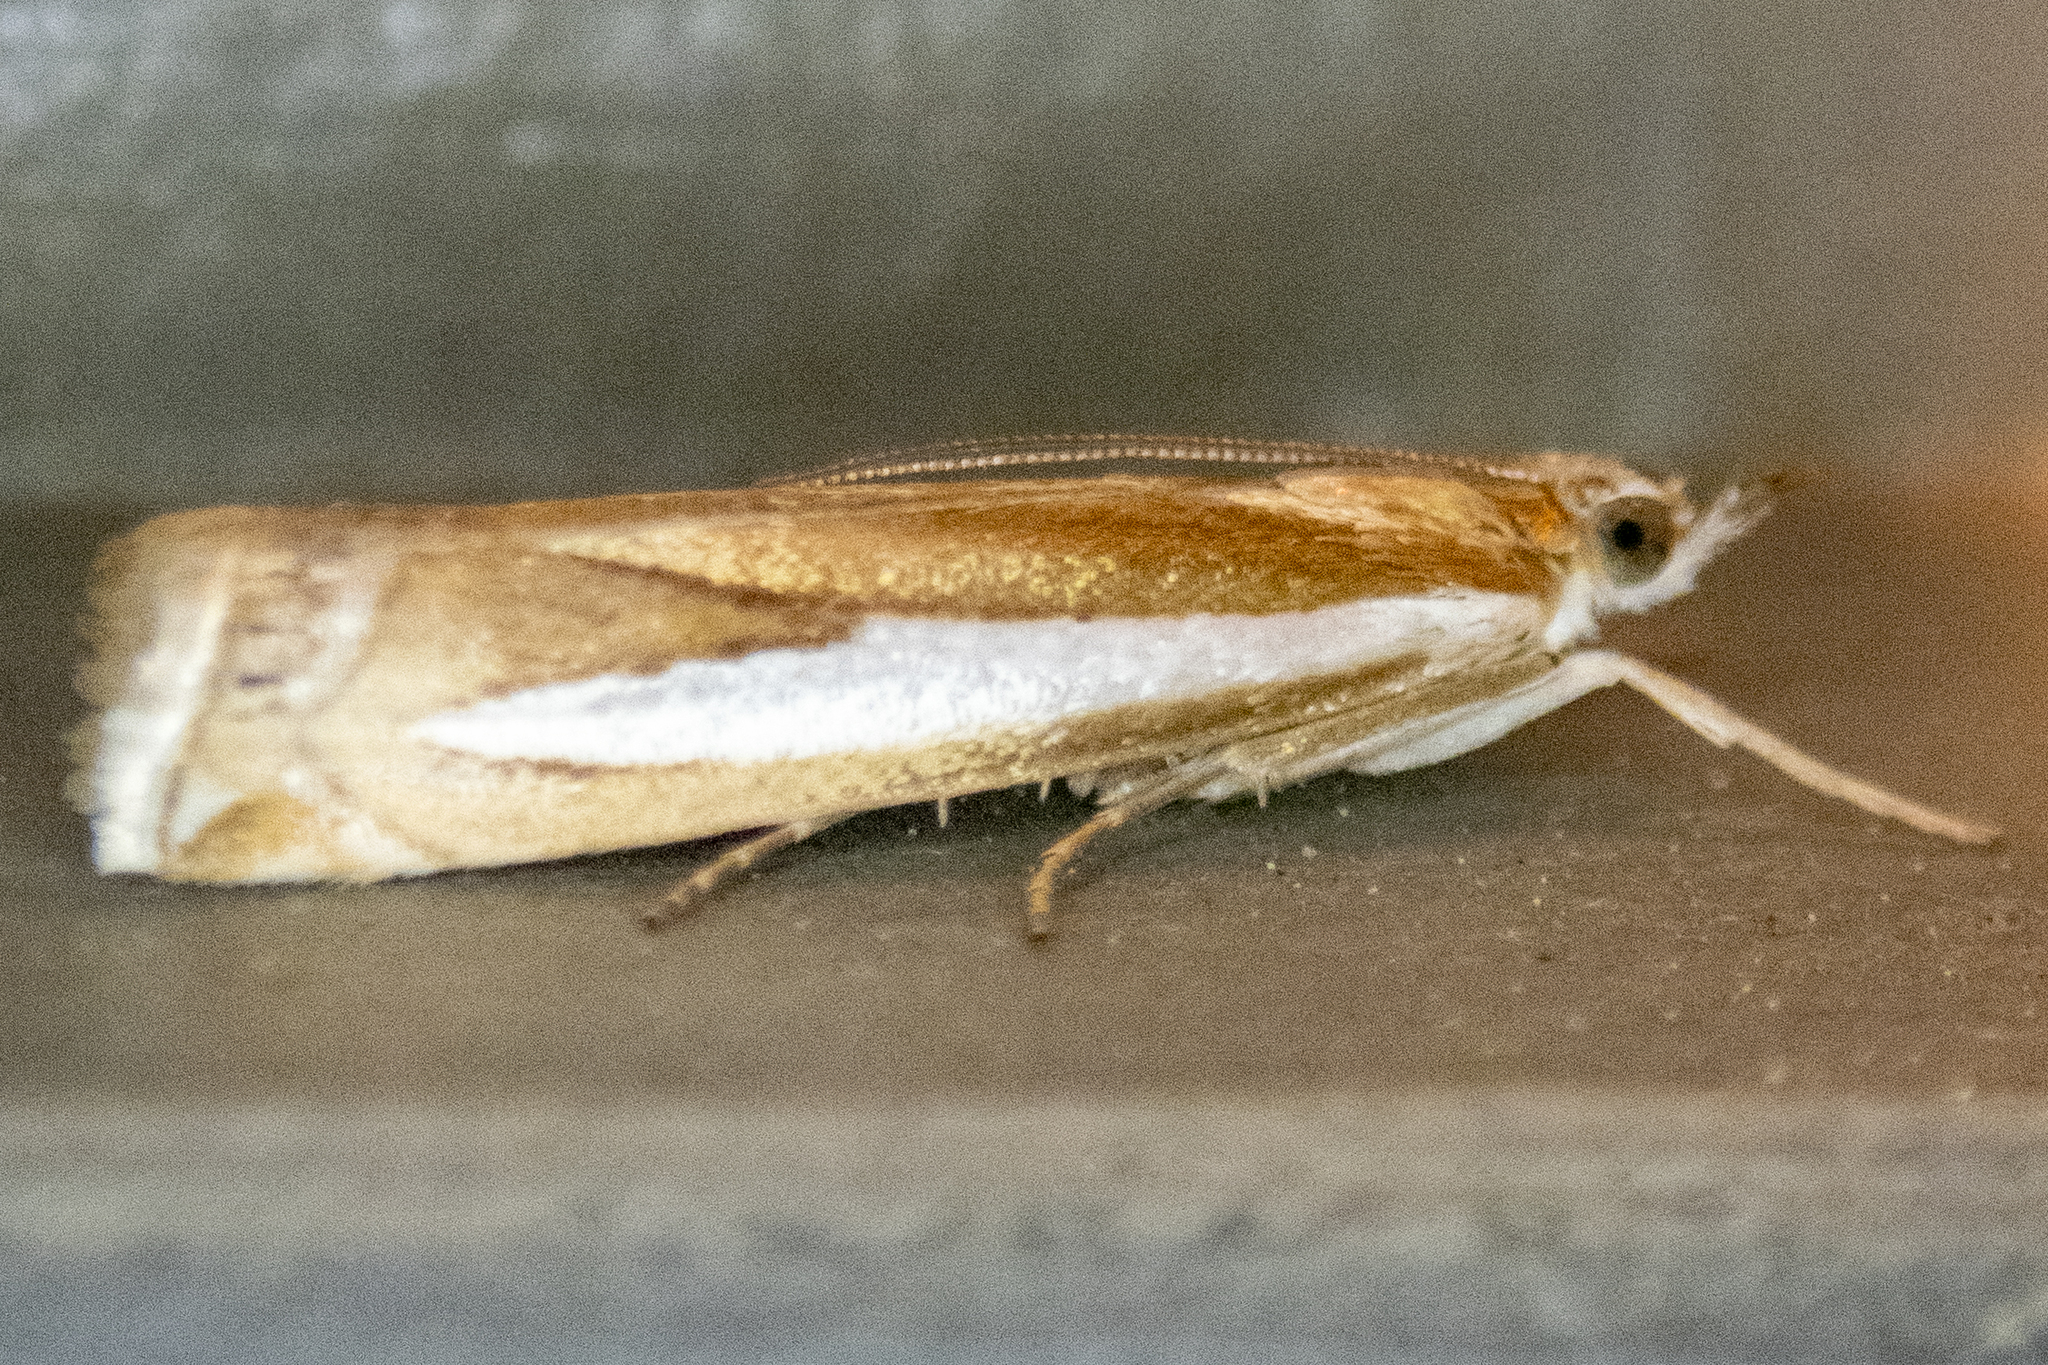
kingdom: Animalia
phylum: Arthropoda
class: Insecta
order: Lepidoptera
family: Crambidae
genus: Crambus
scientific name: Crambus praefectellus
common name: Common grass-veneer
